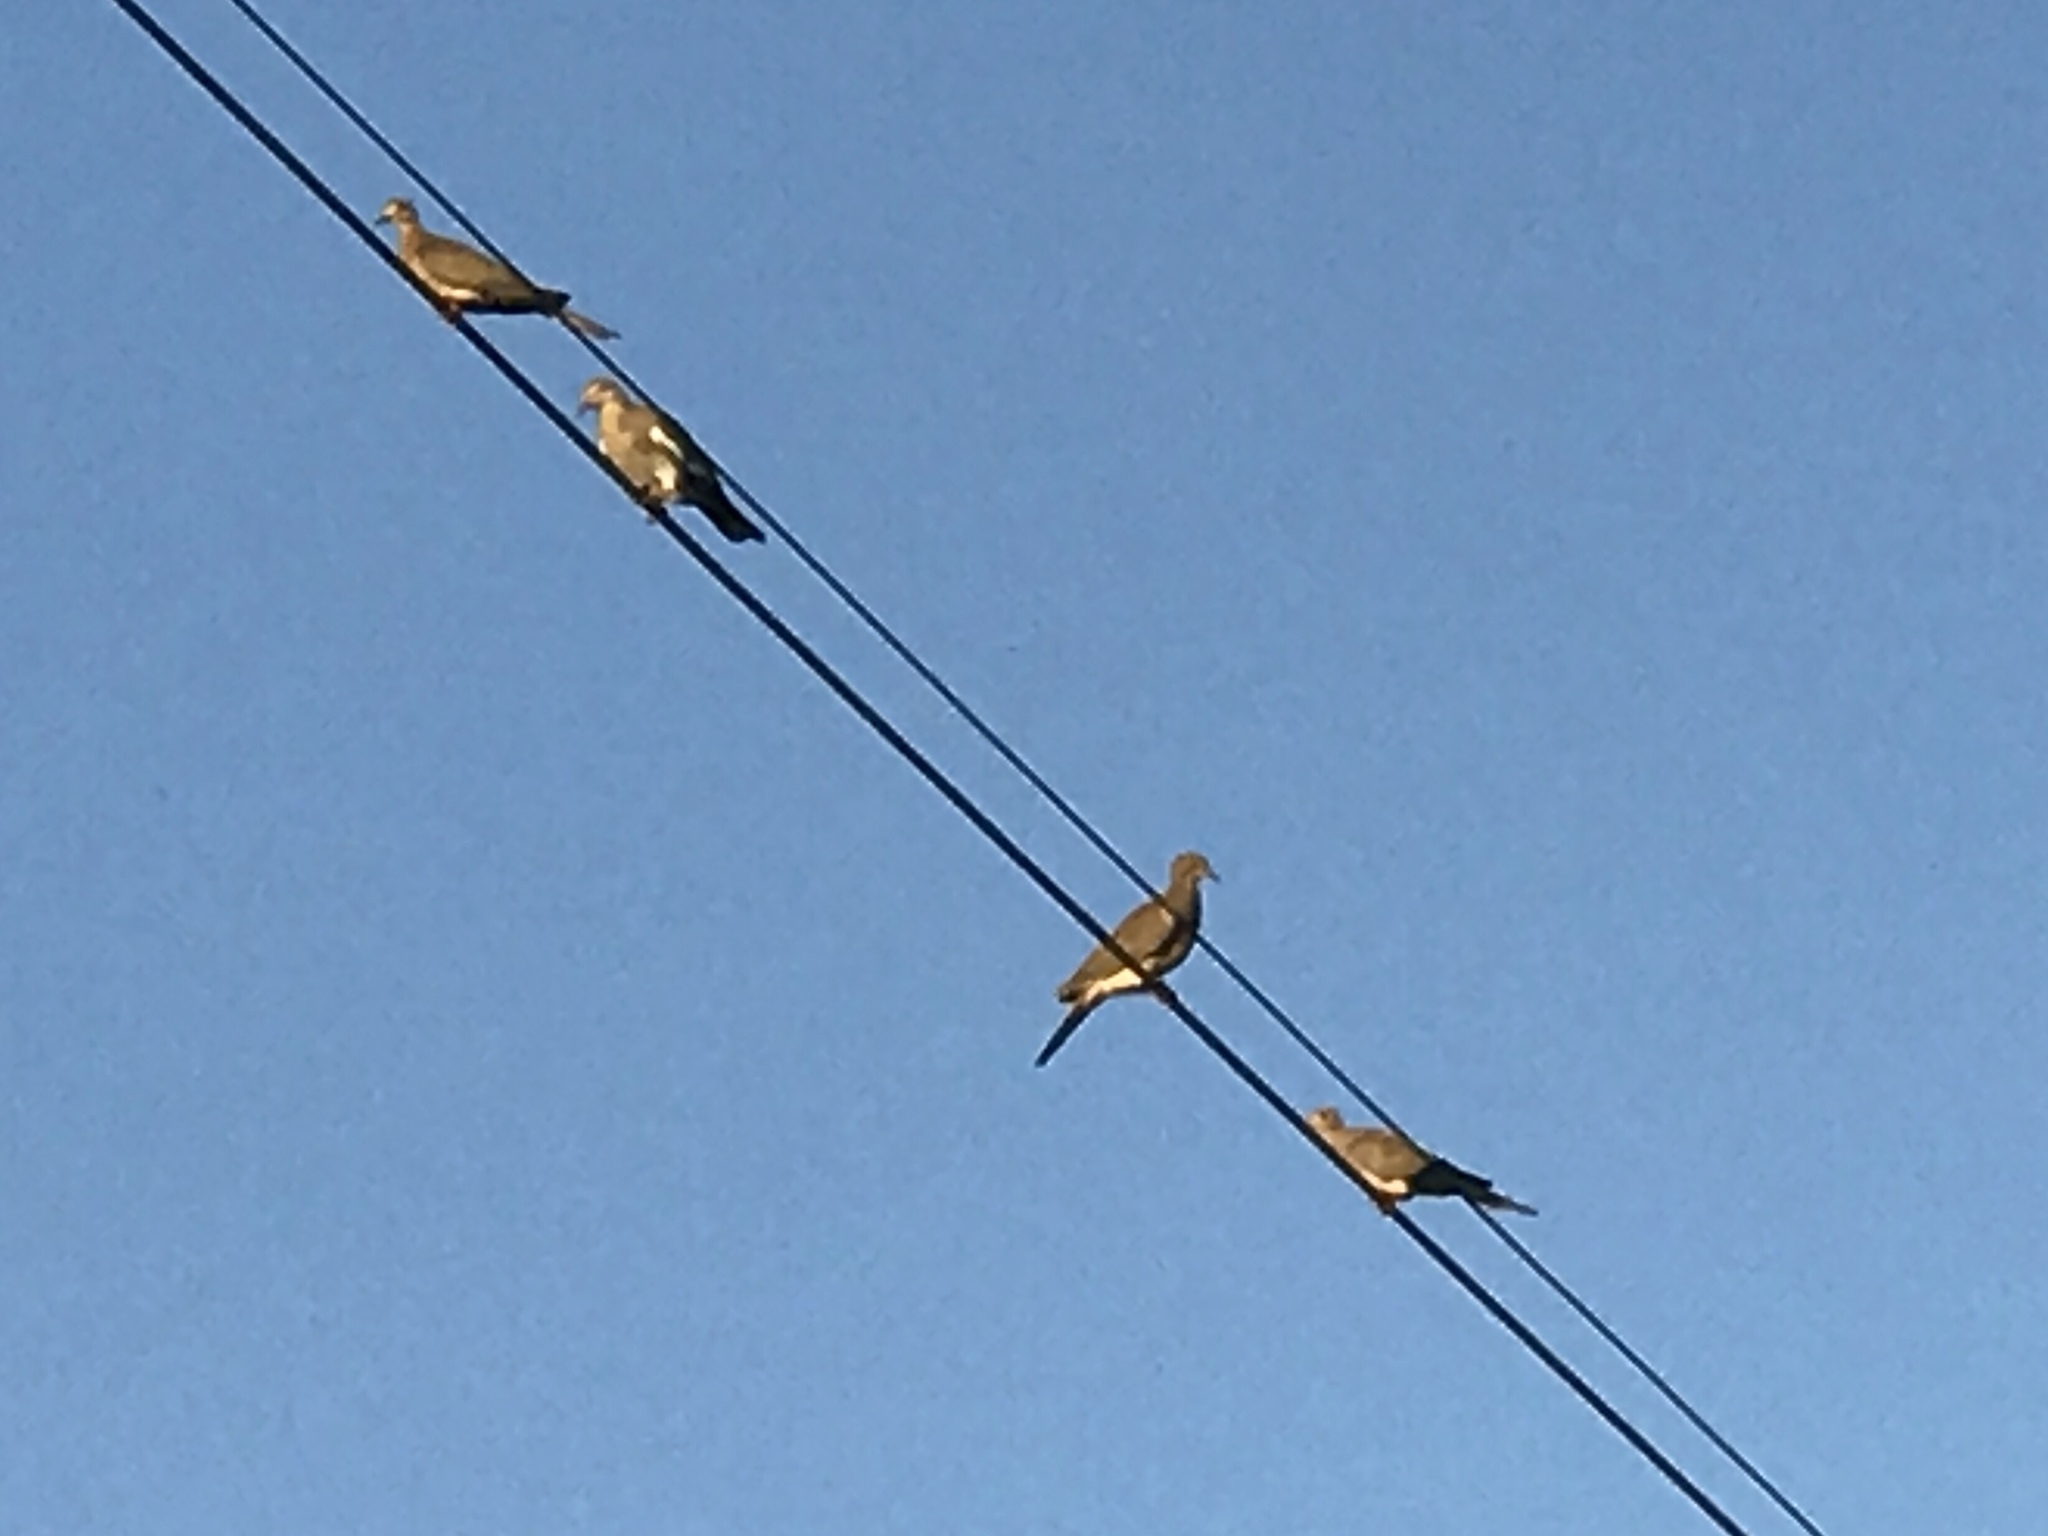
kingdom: Animalia
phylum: Chordata
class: Aves
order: Columbiformes
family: Columbidae
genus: Zenaida
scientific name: Zenaida macroura
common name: Mourning dove
